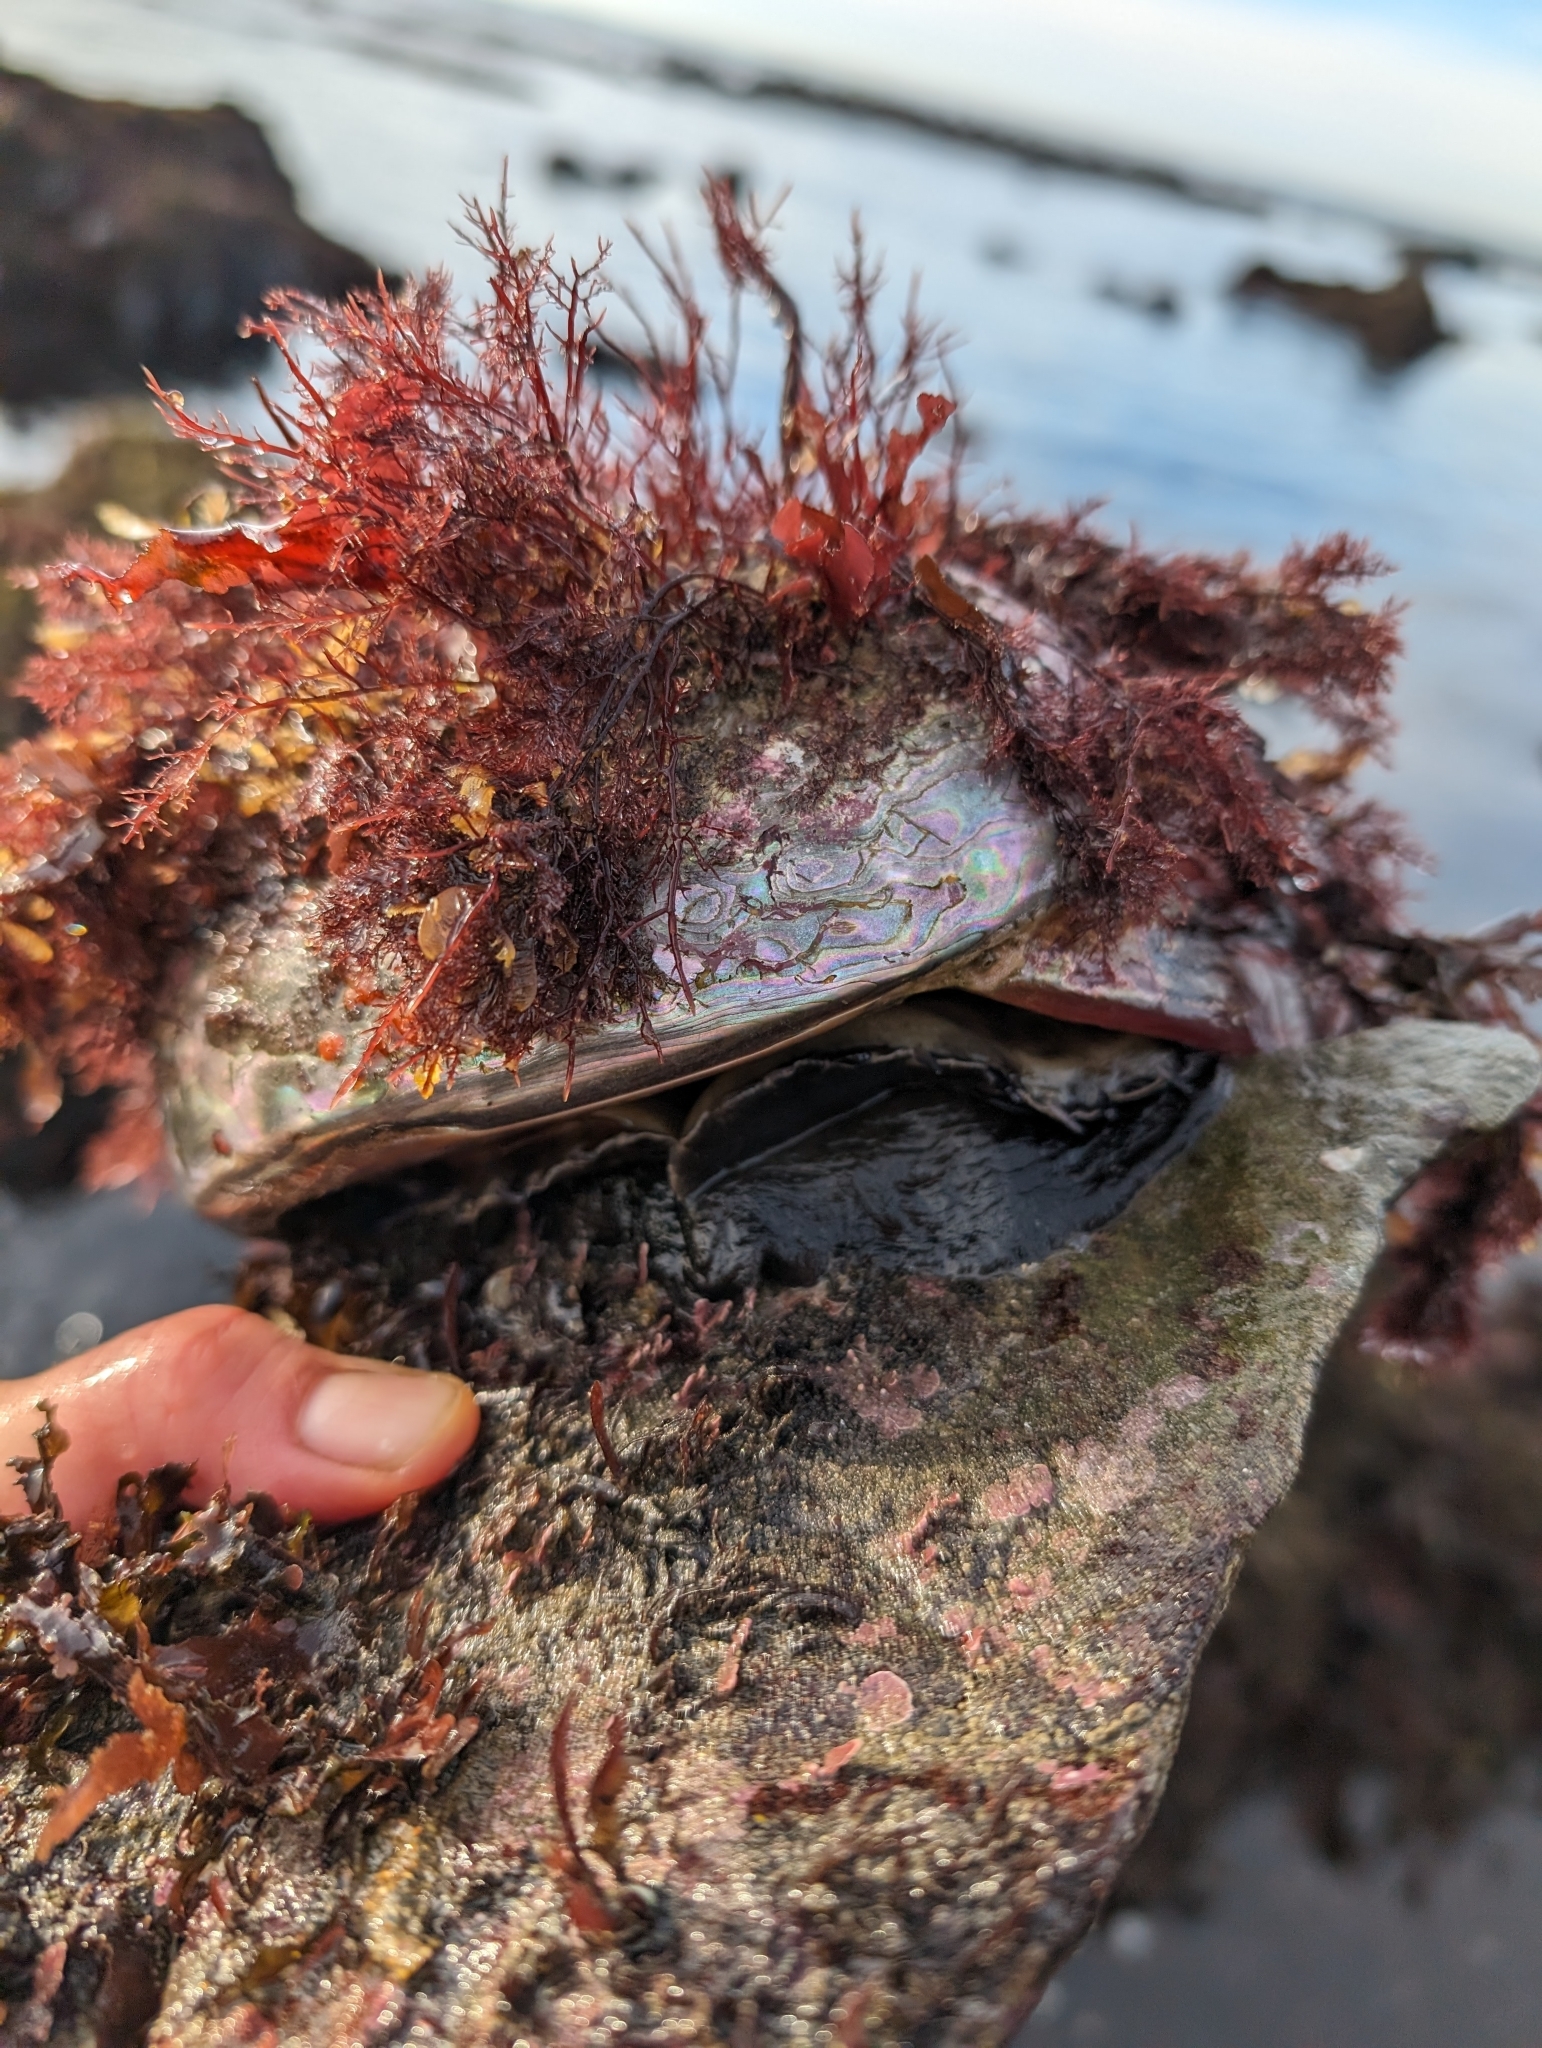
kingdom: Animalia
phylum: Mollusca
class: Gastropoda
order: Lepetellida
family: Haliotidae
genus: Haliotis
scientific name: Haliotis rufescens
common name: Red abalone
